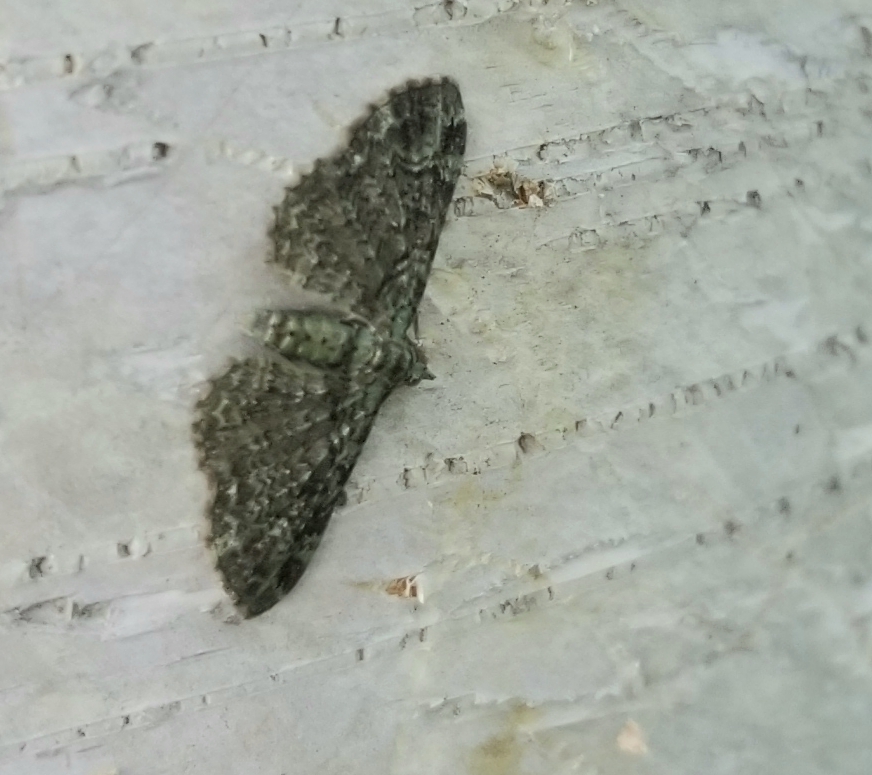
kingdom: Animalia
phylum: Arthropoda
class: Insecta
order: Lepidoptera
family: Geometridae
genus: Pasiphila
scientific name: Pasiphila rectangulata
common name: Green pug
